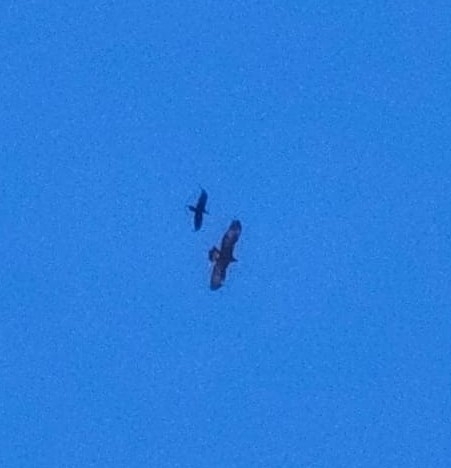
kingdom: Animalia
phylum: Chordata
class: Aves
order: Accipitriformes
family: Accipitridae
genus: Aquila
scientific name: Aquila chrysaetos
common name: Golden eagle
